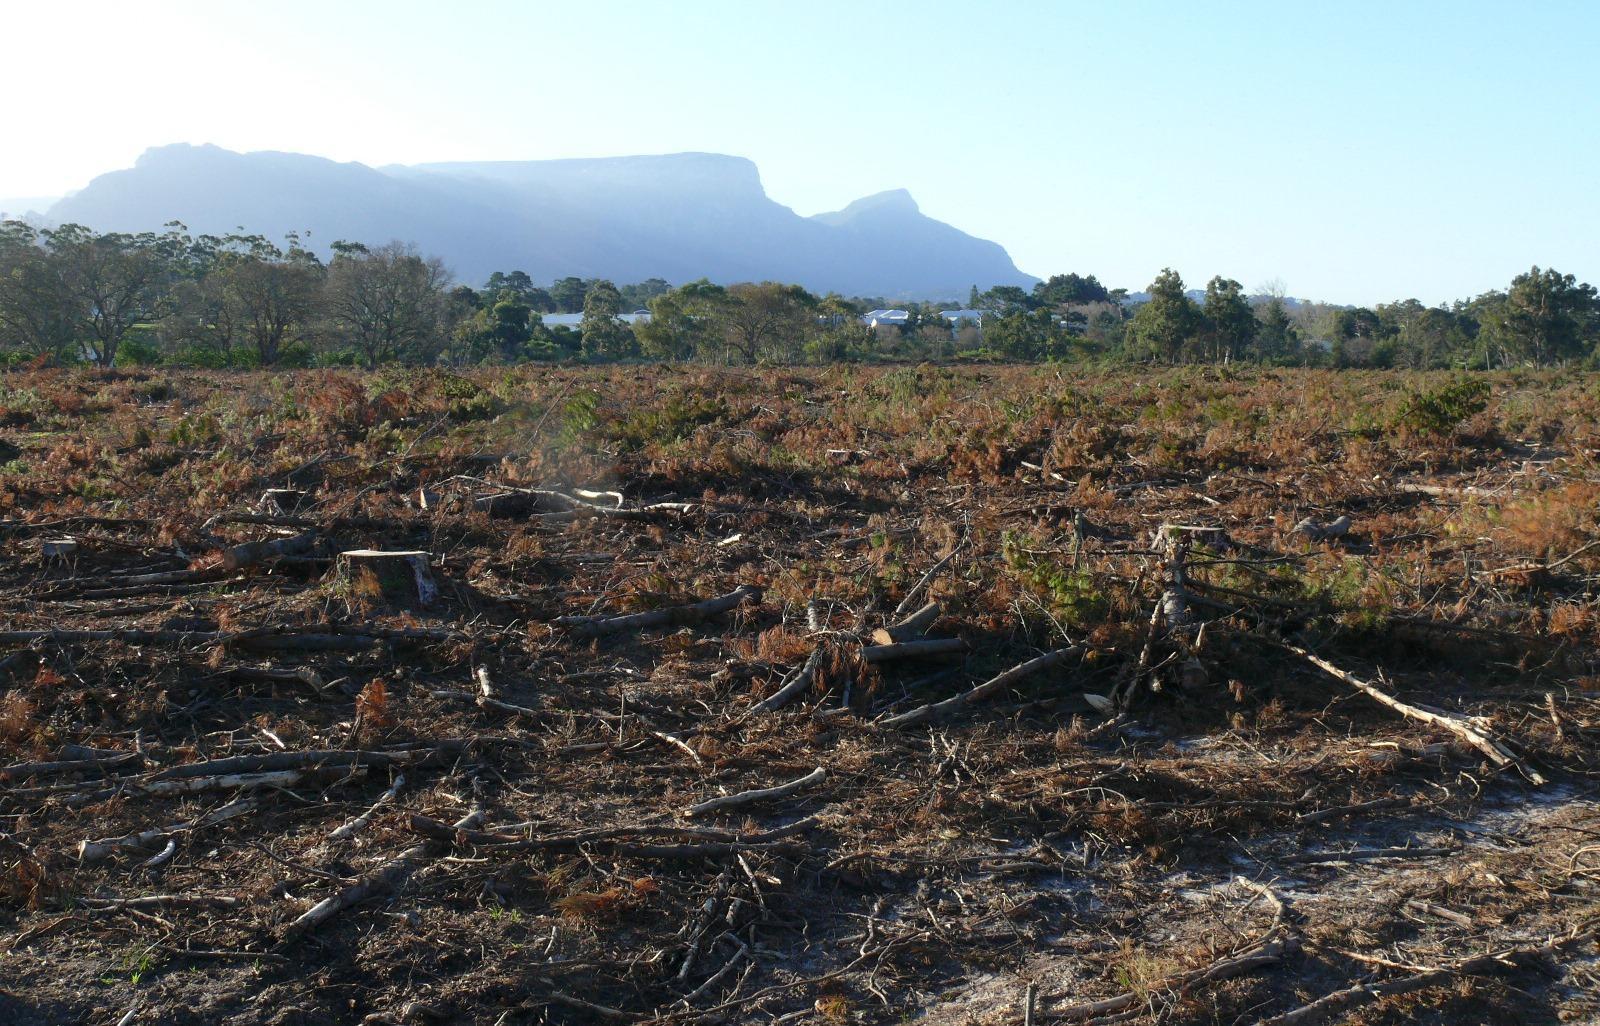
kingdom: Plantae
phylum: Tracheophyta
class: Pinopsida
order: Pinales
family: Pinaceae
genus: Pinus
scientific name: Pinus radiata
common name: Monterey pine
